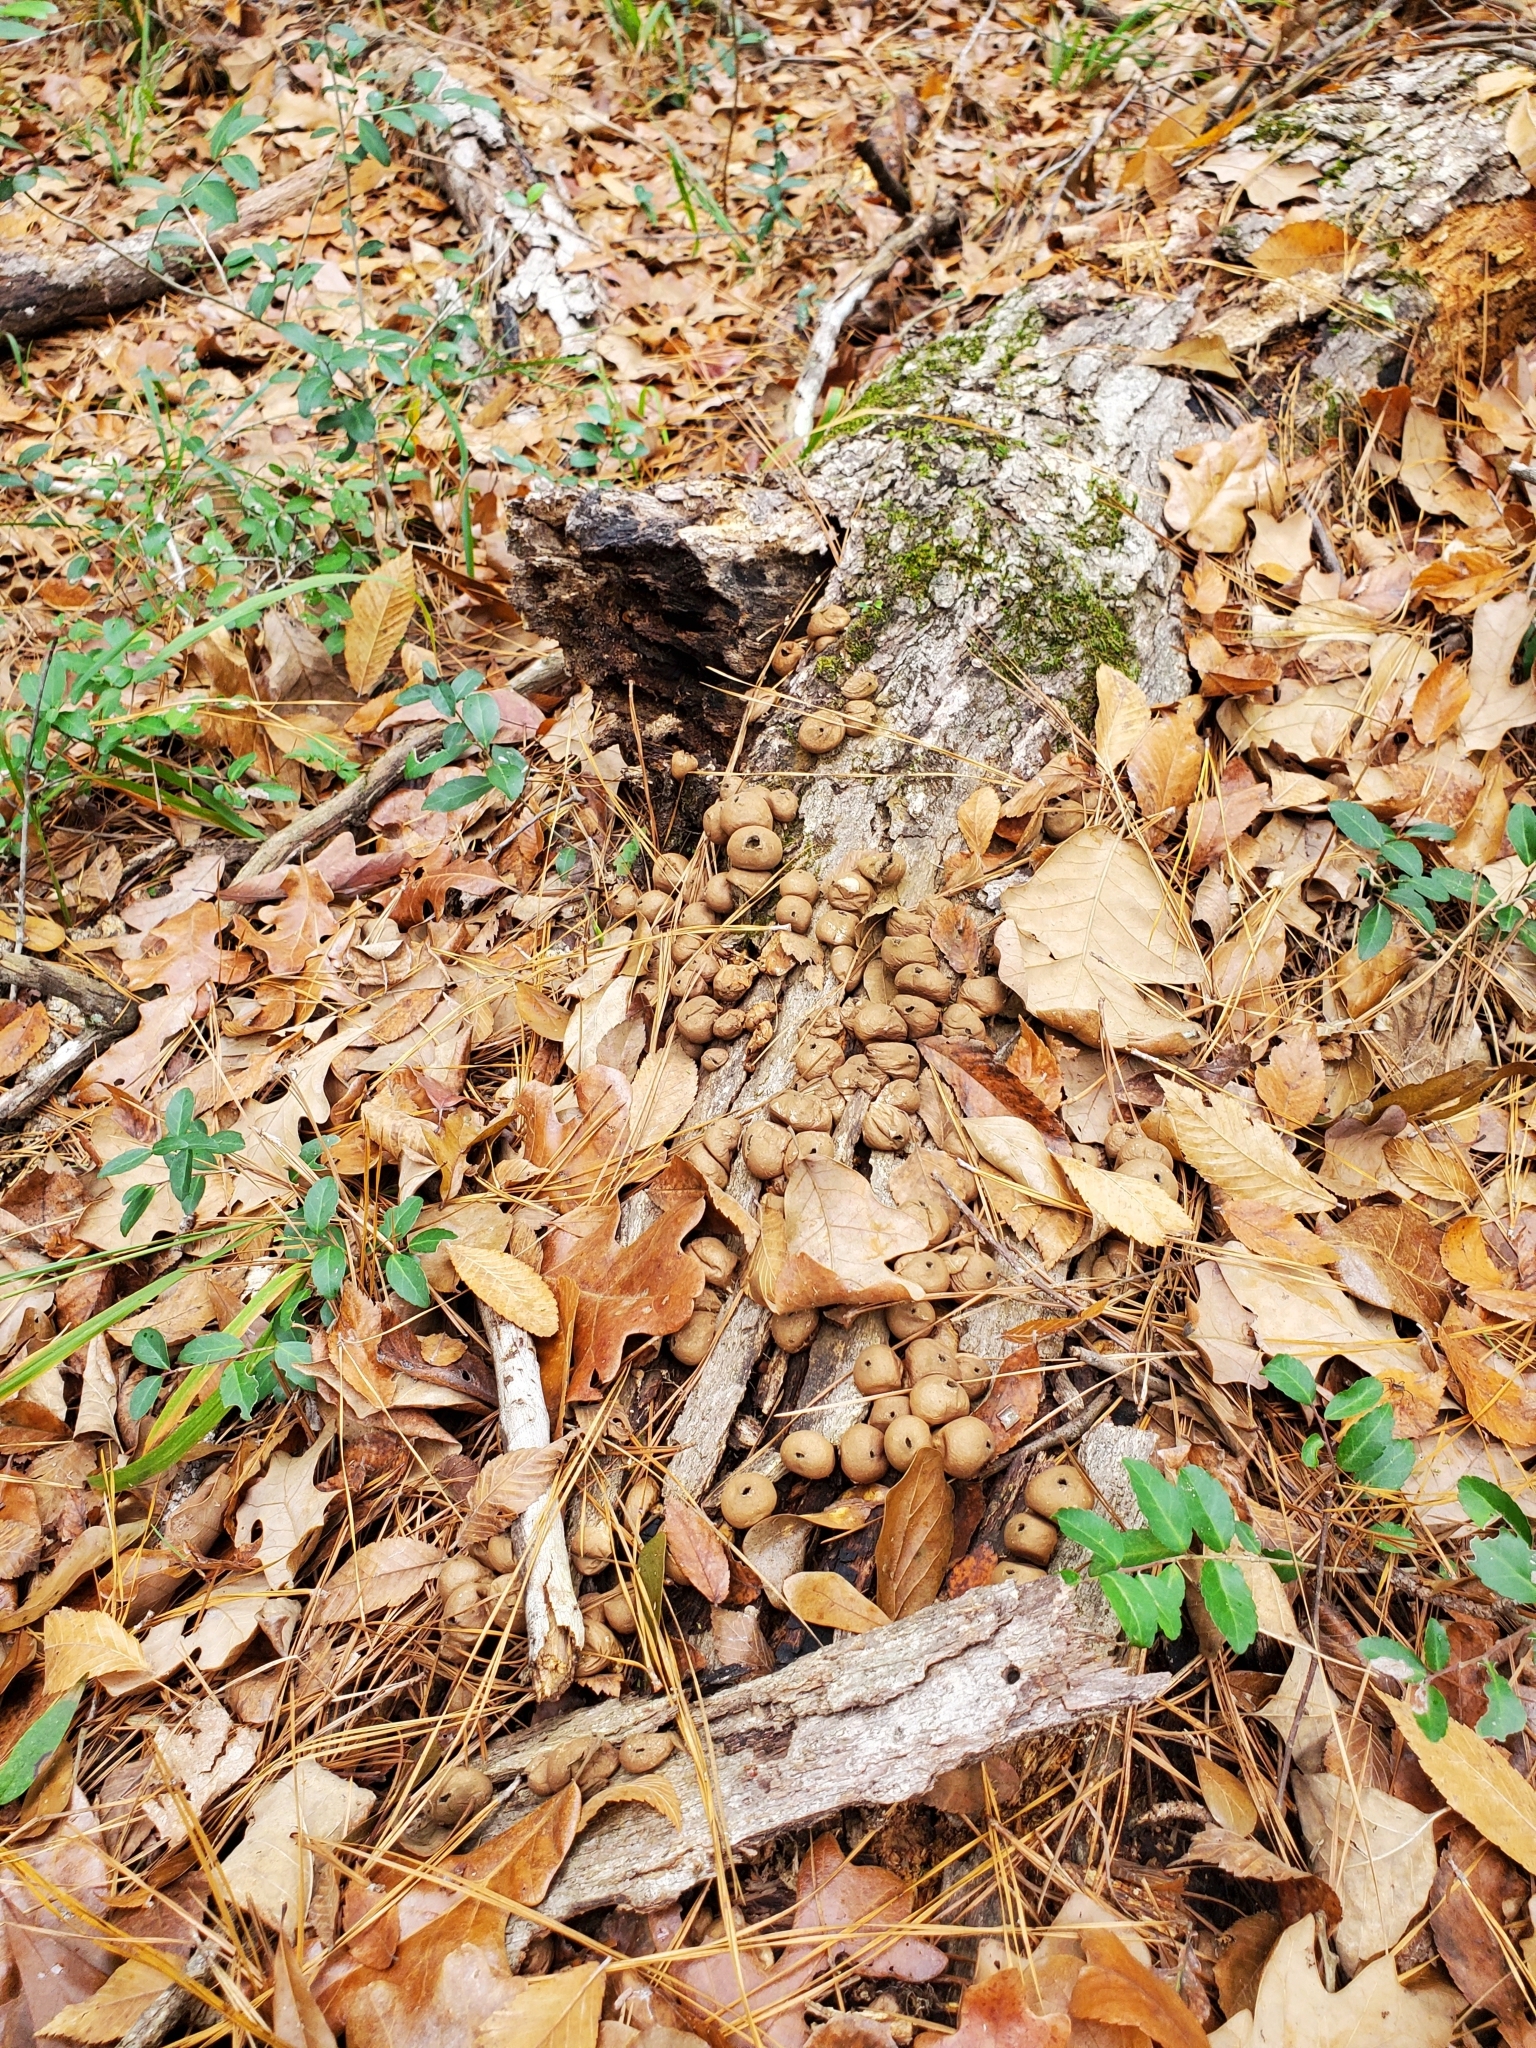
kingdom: Fungi
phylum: Basidiomycota
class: Agaricomycetes
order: Agaricales
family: Lycoperdaceae
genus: Apioperdon
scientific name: Apioperdon pyriforme
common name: Pear-shaped puffball
